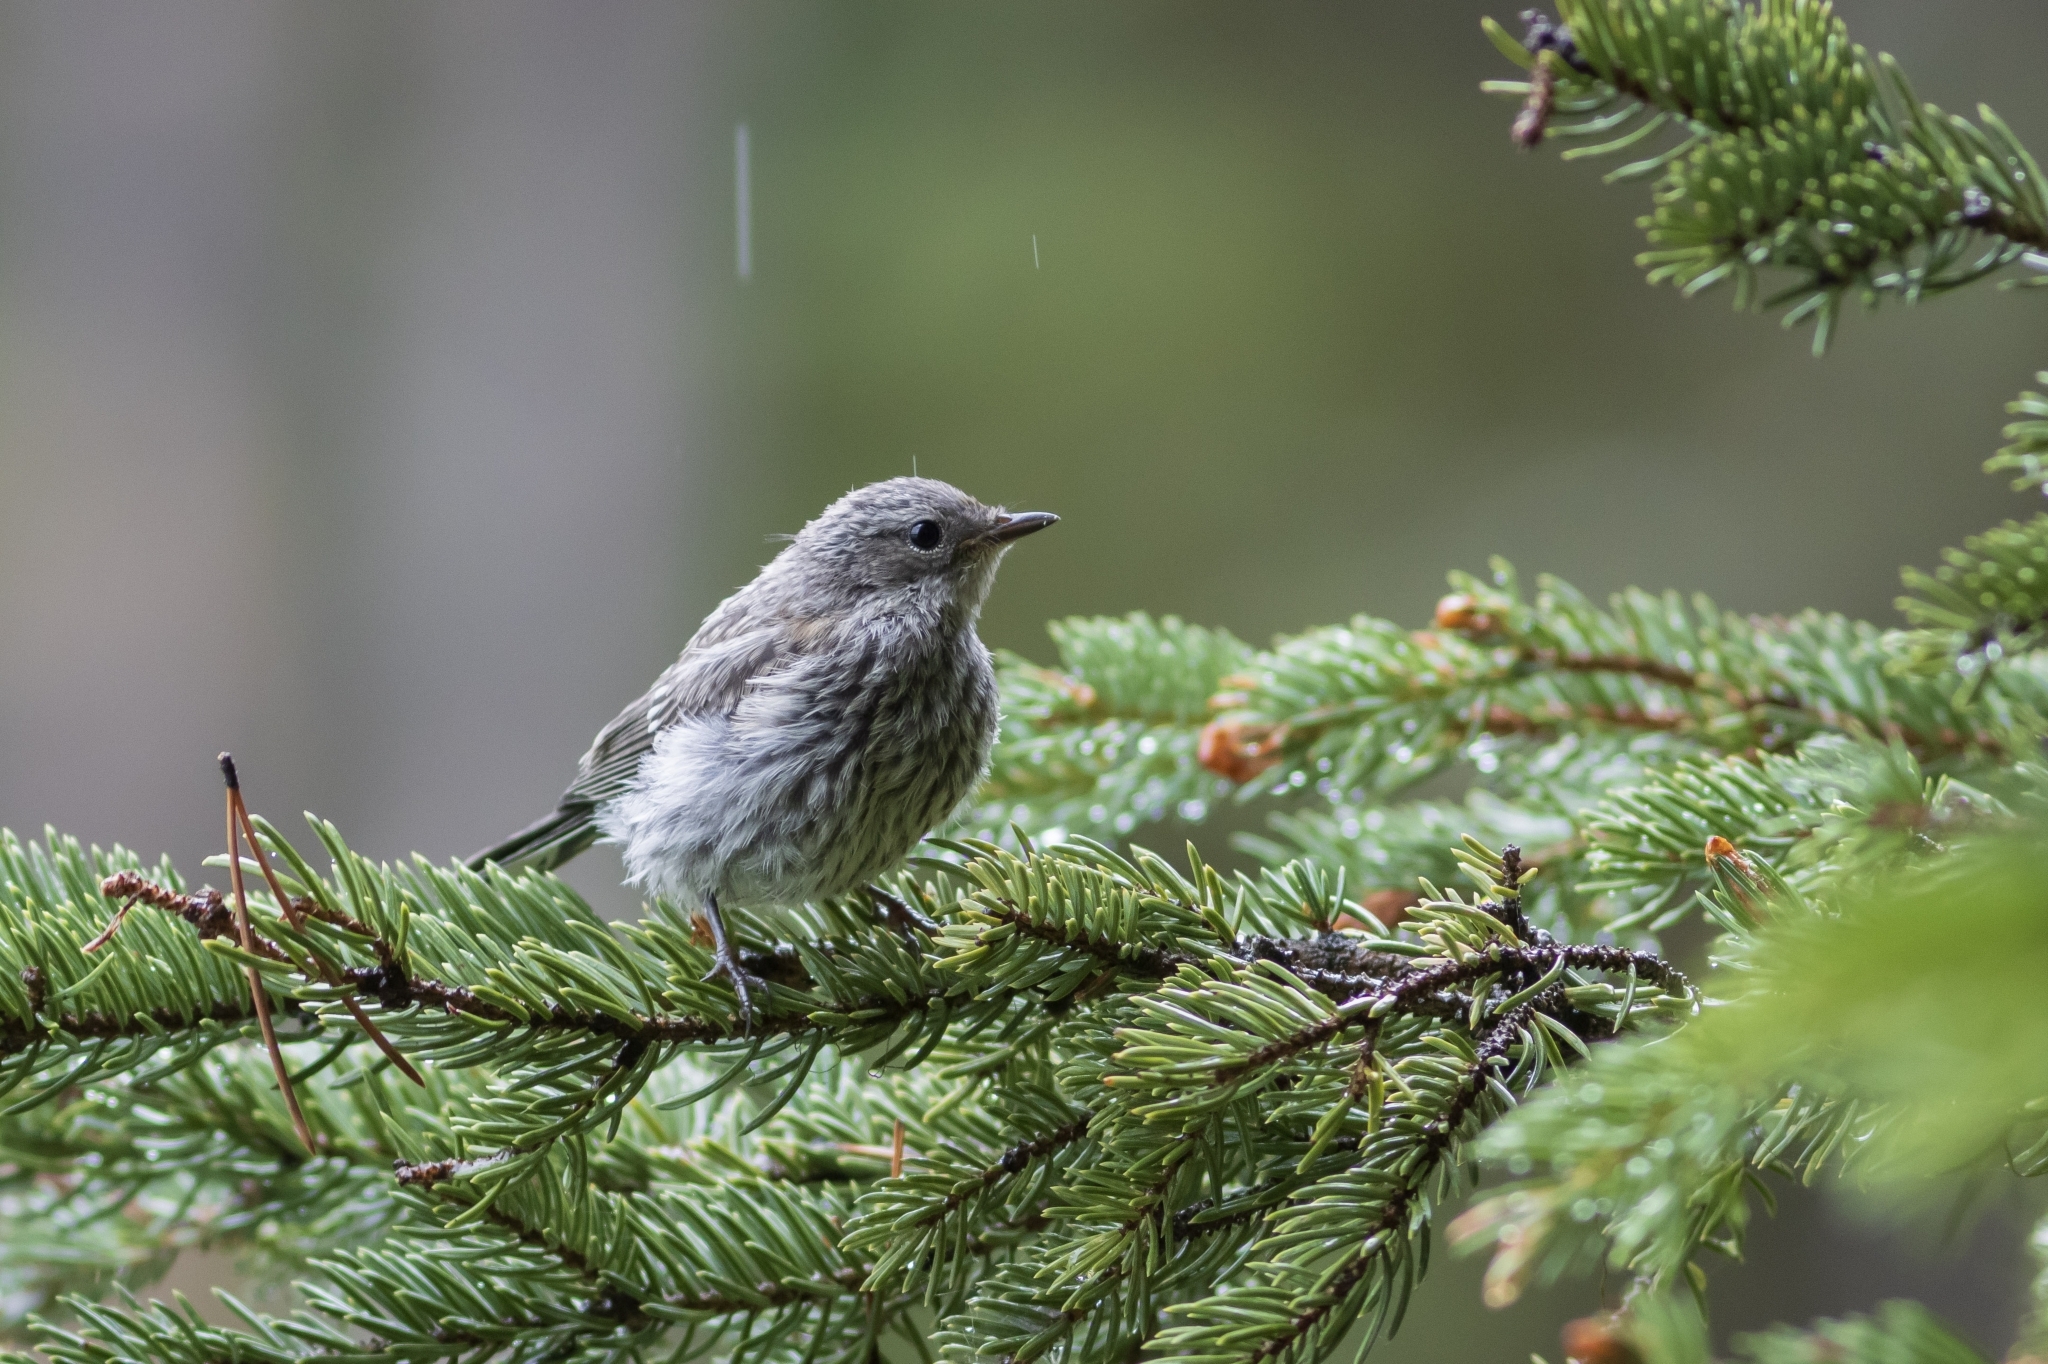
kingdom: Animalia
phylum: Chordata
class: Aves
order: Passeriformes
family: Parulidae
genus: Setophaga
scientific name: Setophaga coronata
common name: Myrtle warbler
